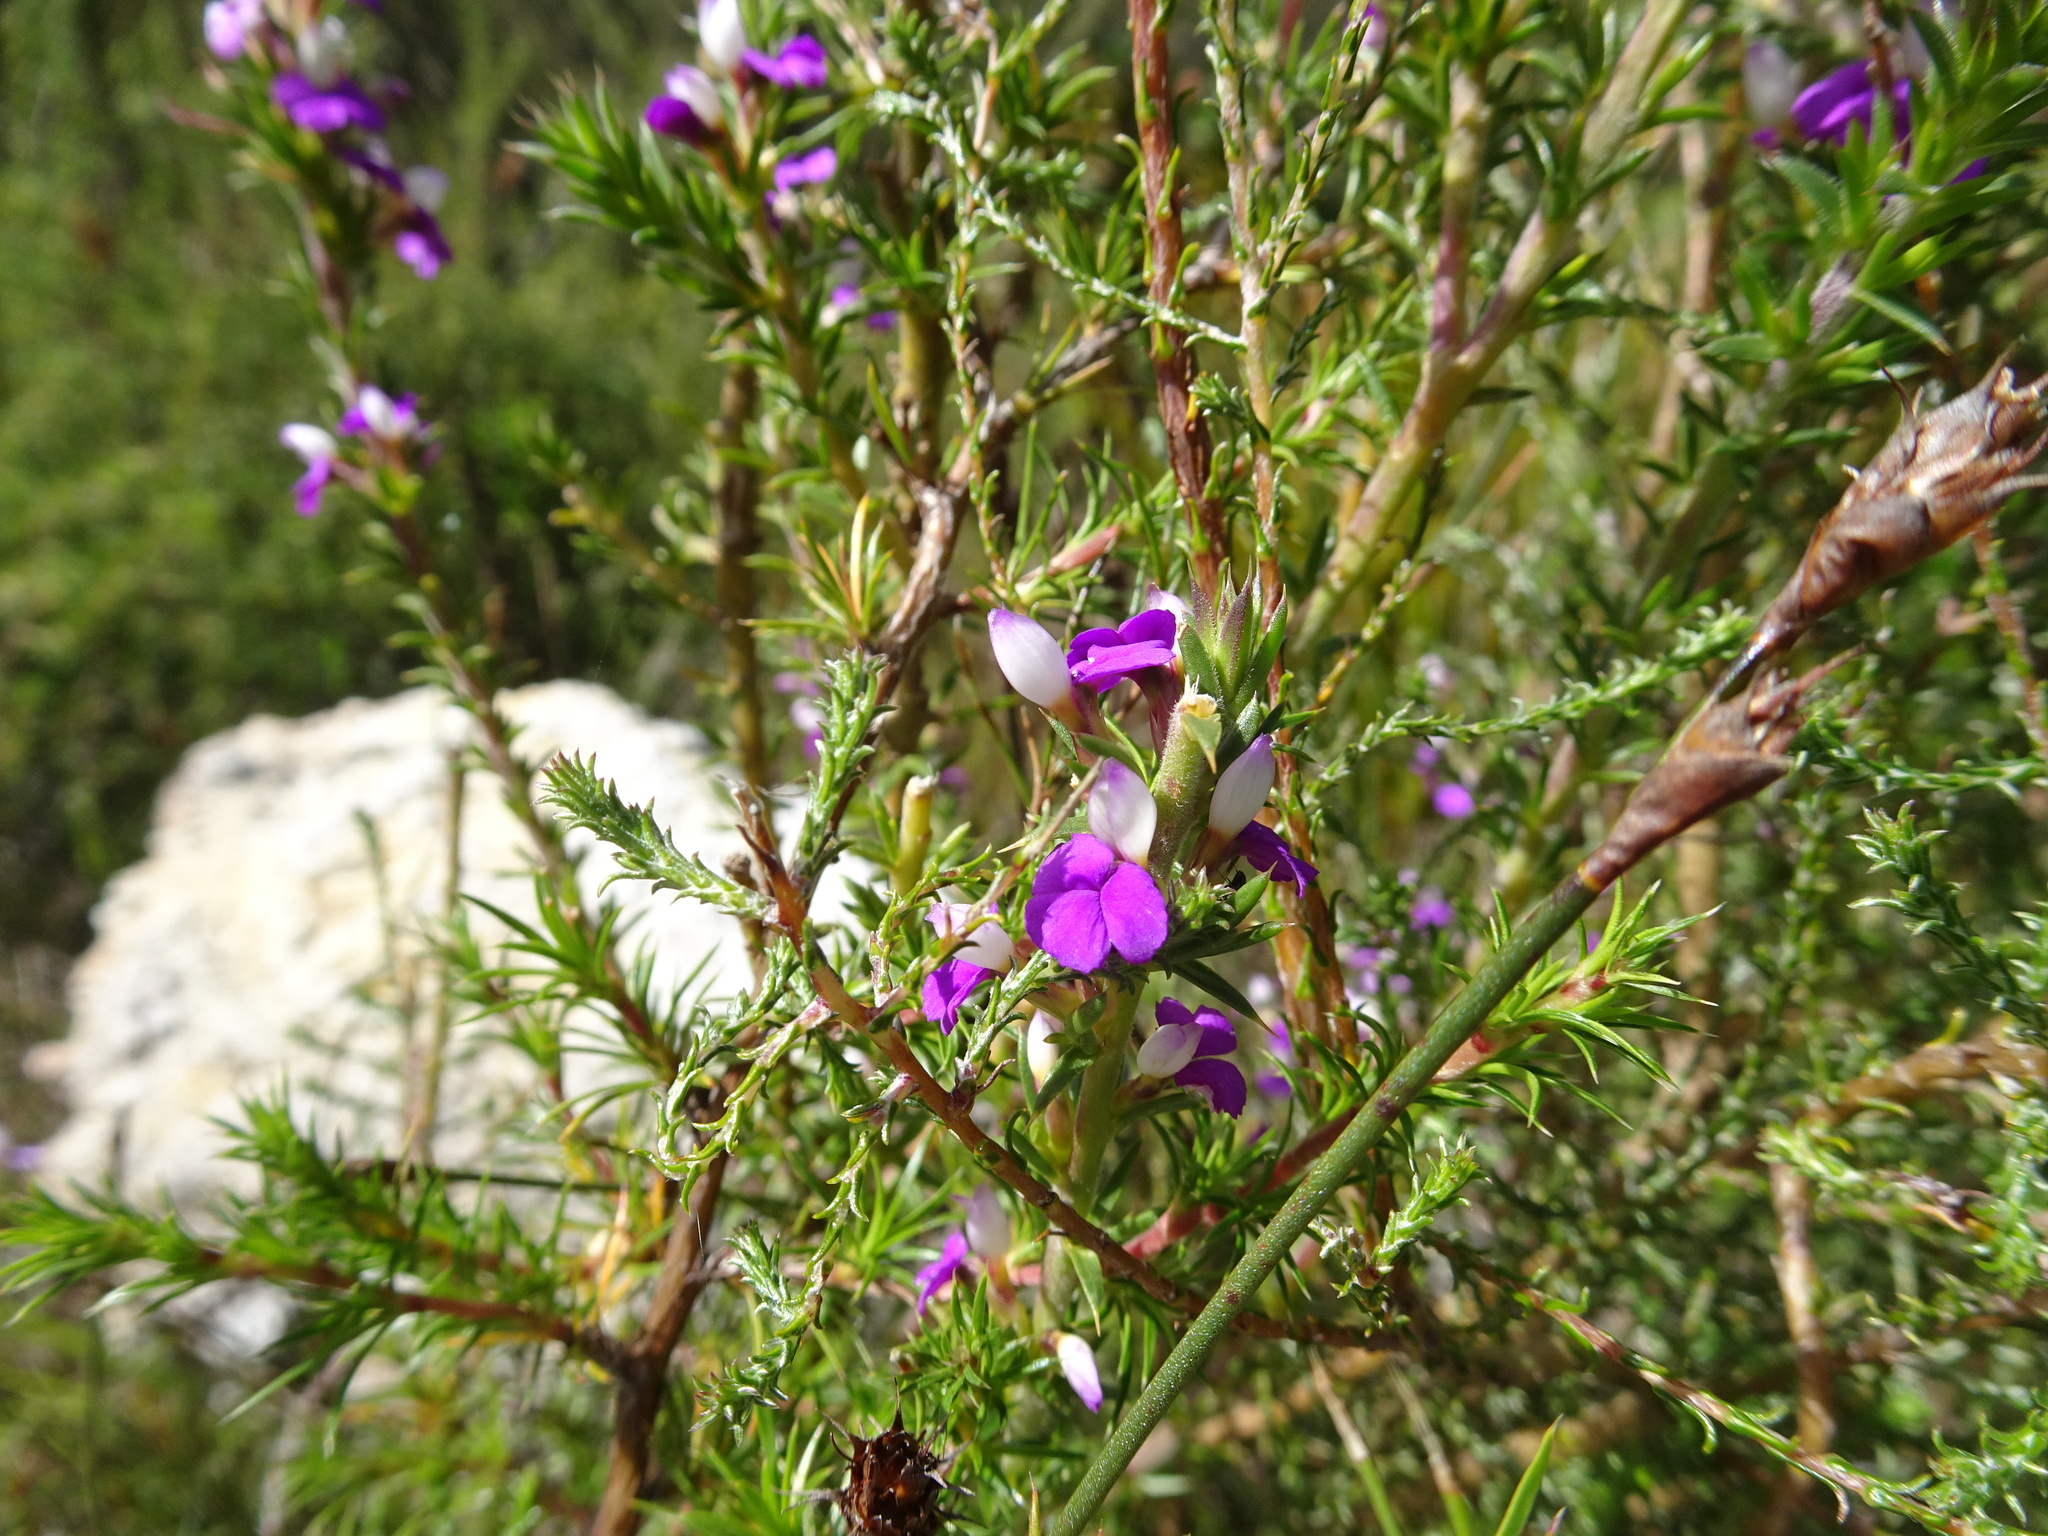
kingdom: Plantae
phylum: Tracheophyta
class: Magnoliopsida
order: Fabales
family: Polygalaceae
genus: Muraltia
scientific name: Muraltia heisteria
